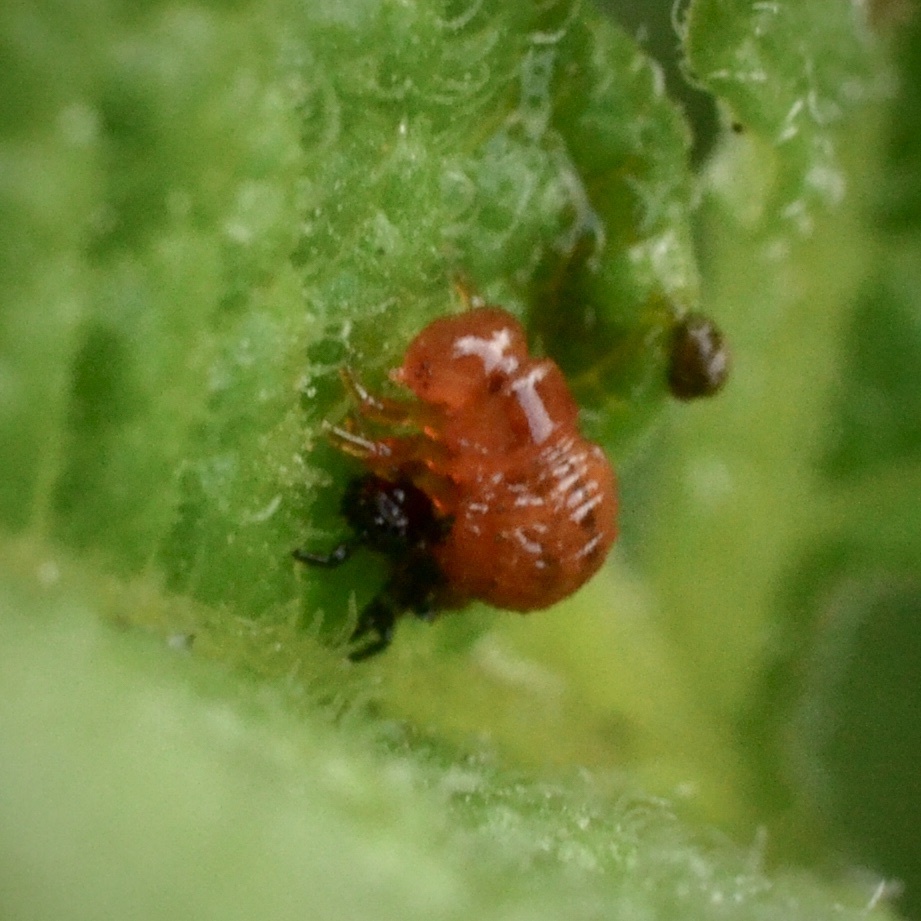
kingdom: Animalia
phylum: Arthropoda
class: Insecta
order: Coleoptera
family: Chrysomelidae
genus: Leptinotarsa
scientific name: Leptinotarsa decemlineata
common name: Colorado potato beetle
